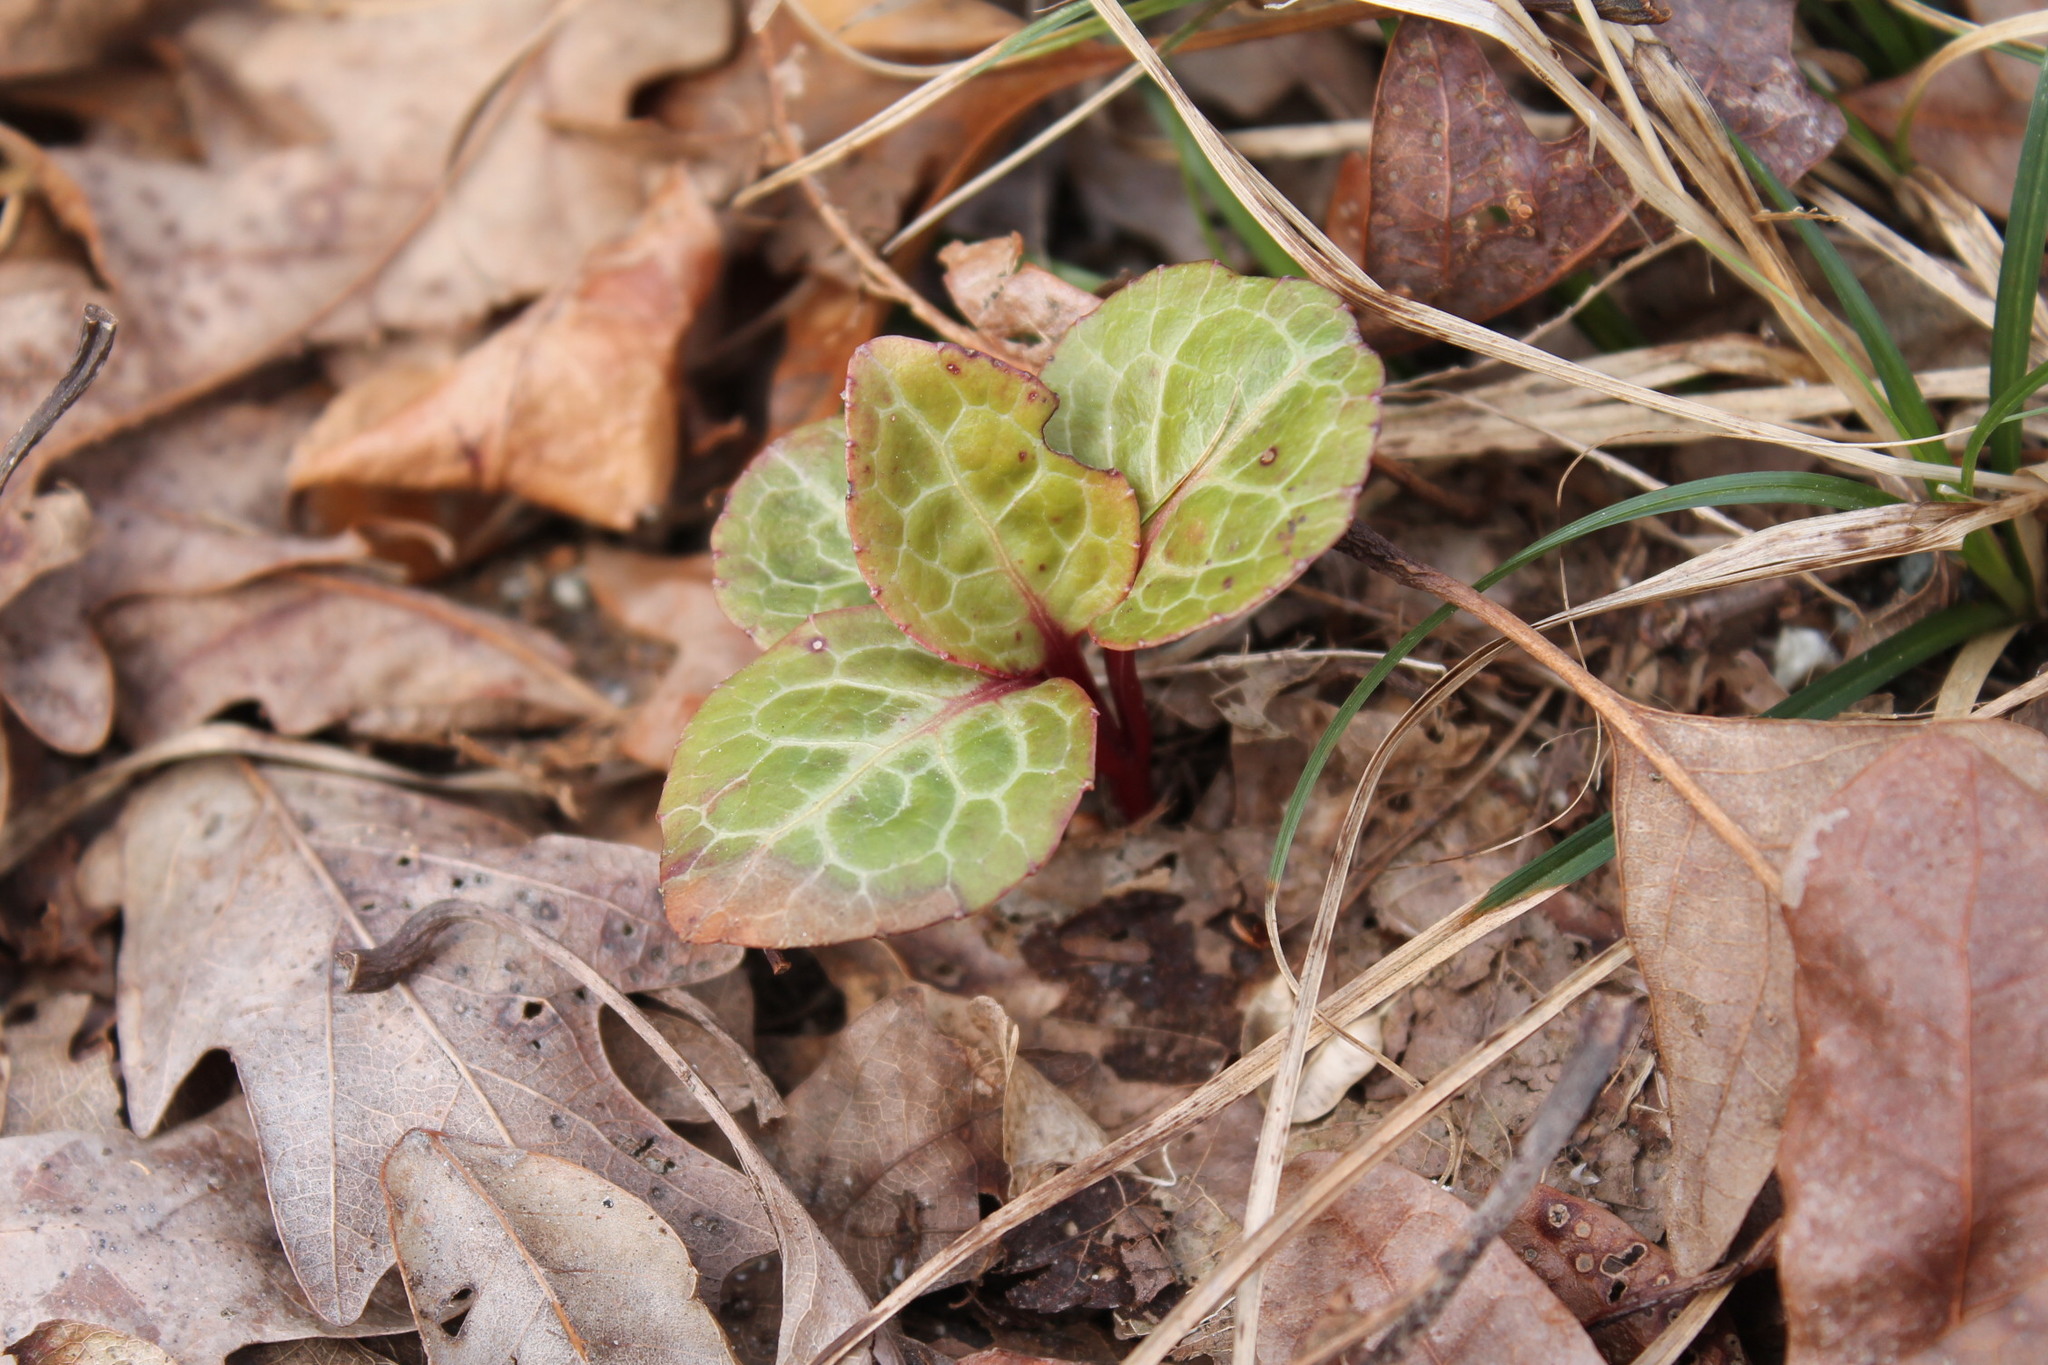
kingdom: Plantae
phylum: Tracheophyta
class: Magnoliopsida
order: Ericales
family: Ericaceae
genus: Pyrola
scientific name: Pyrola americana
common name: American wintergreen
